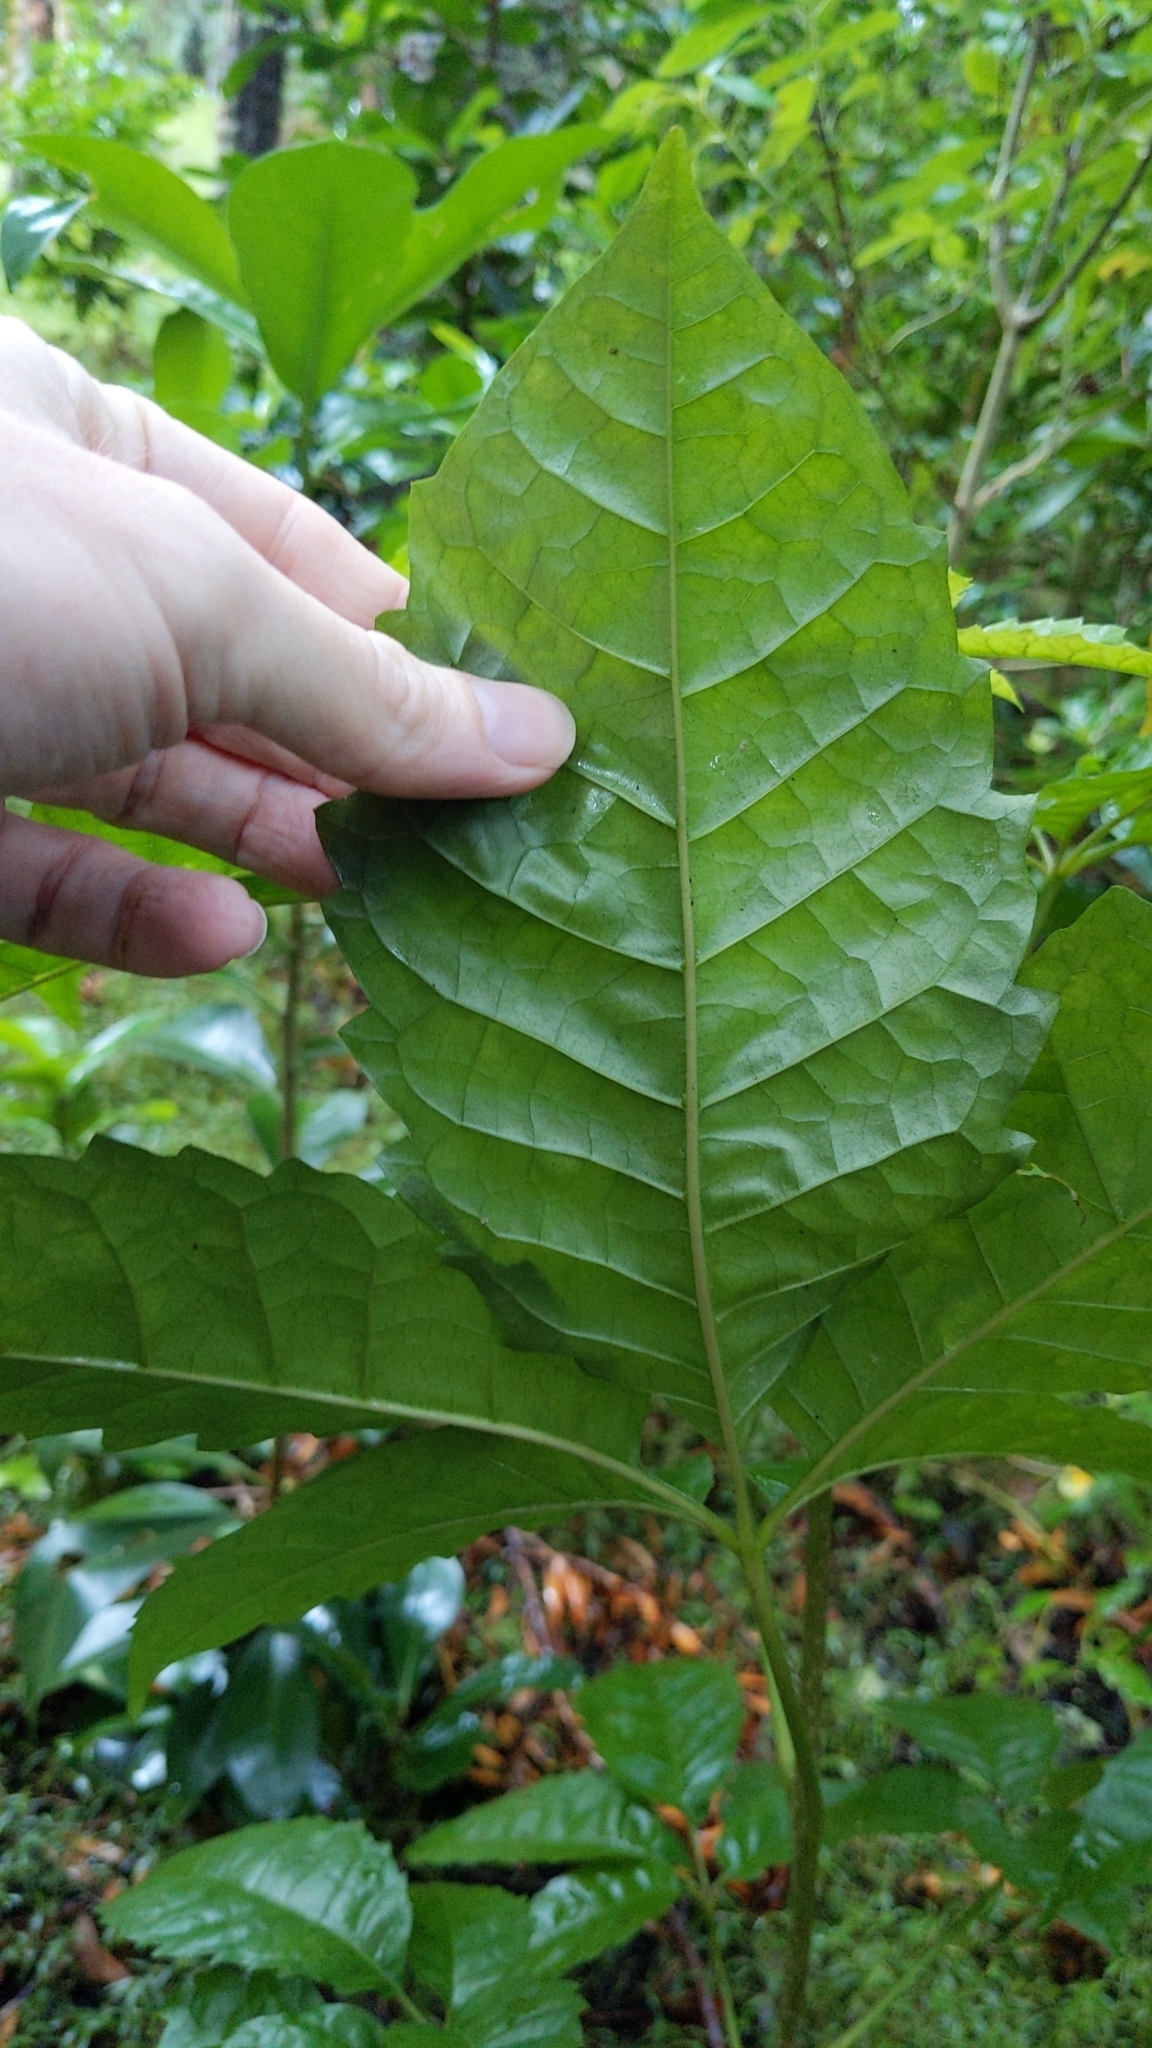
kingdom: Plantae
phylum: Tracheophyta
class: Magnoliopsida
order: Lamiales
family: Lamiaceae
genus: Vitex
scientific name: Vitex lucens
